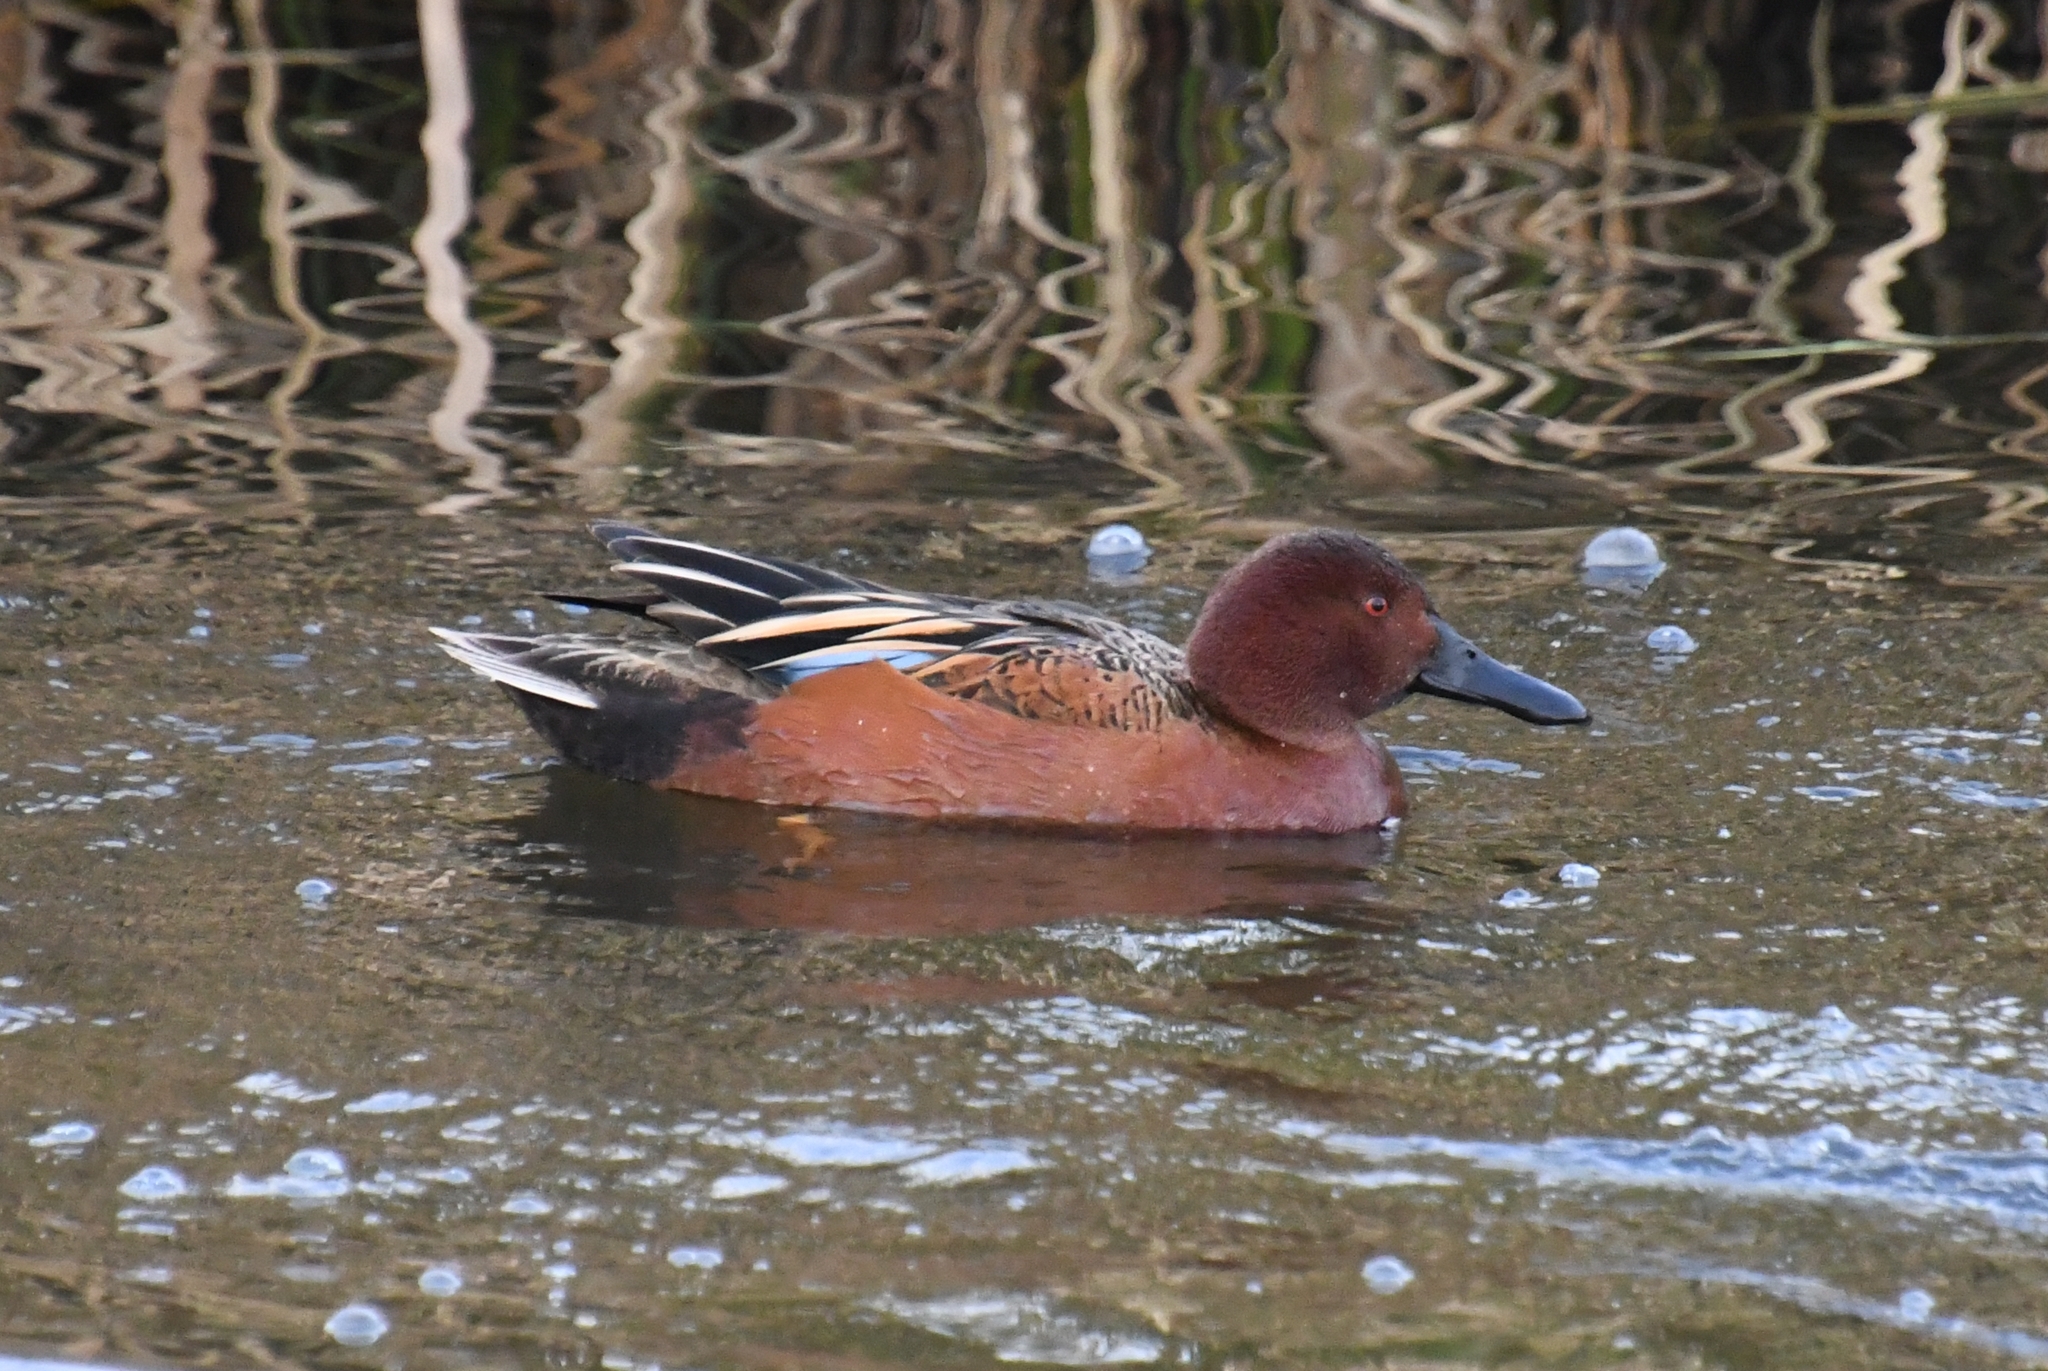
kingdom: Animalia
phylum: Chordata
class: Aves
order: Anseriformes
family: Anatidae
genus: Spatula
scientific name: Spatula cyanoptera
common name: Cinnamon teal
